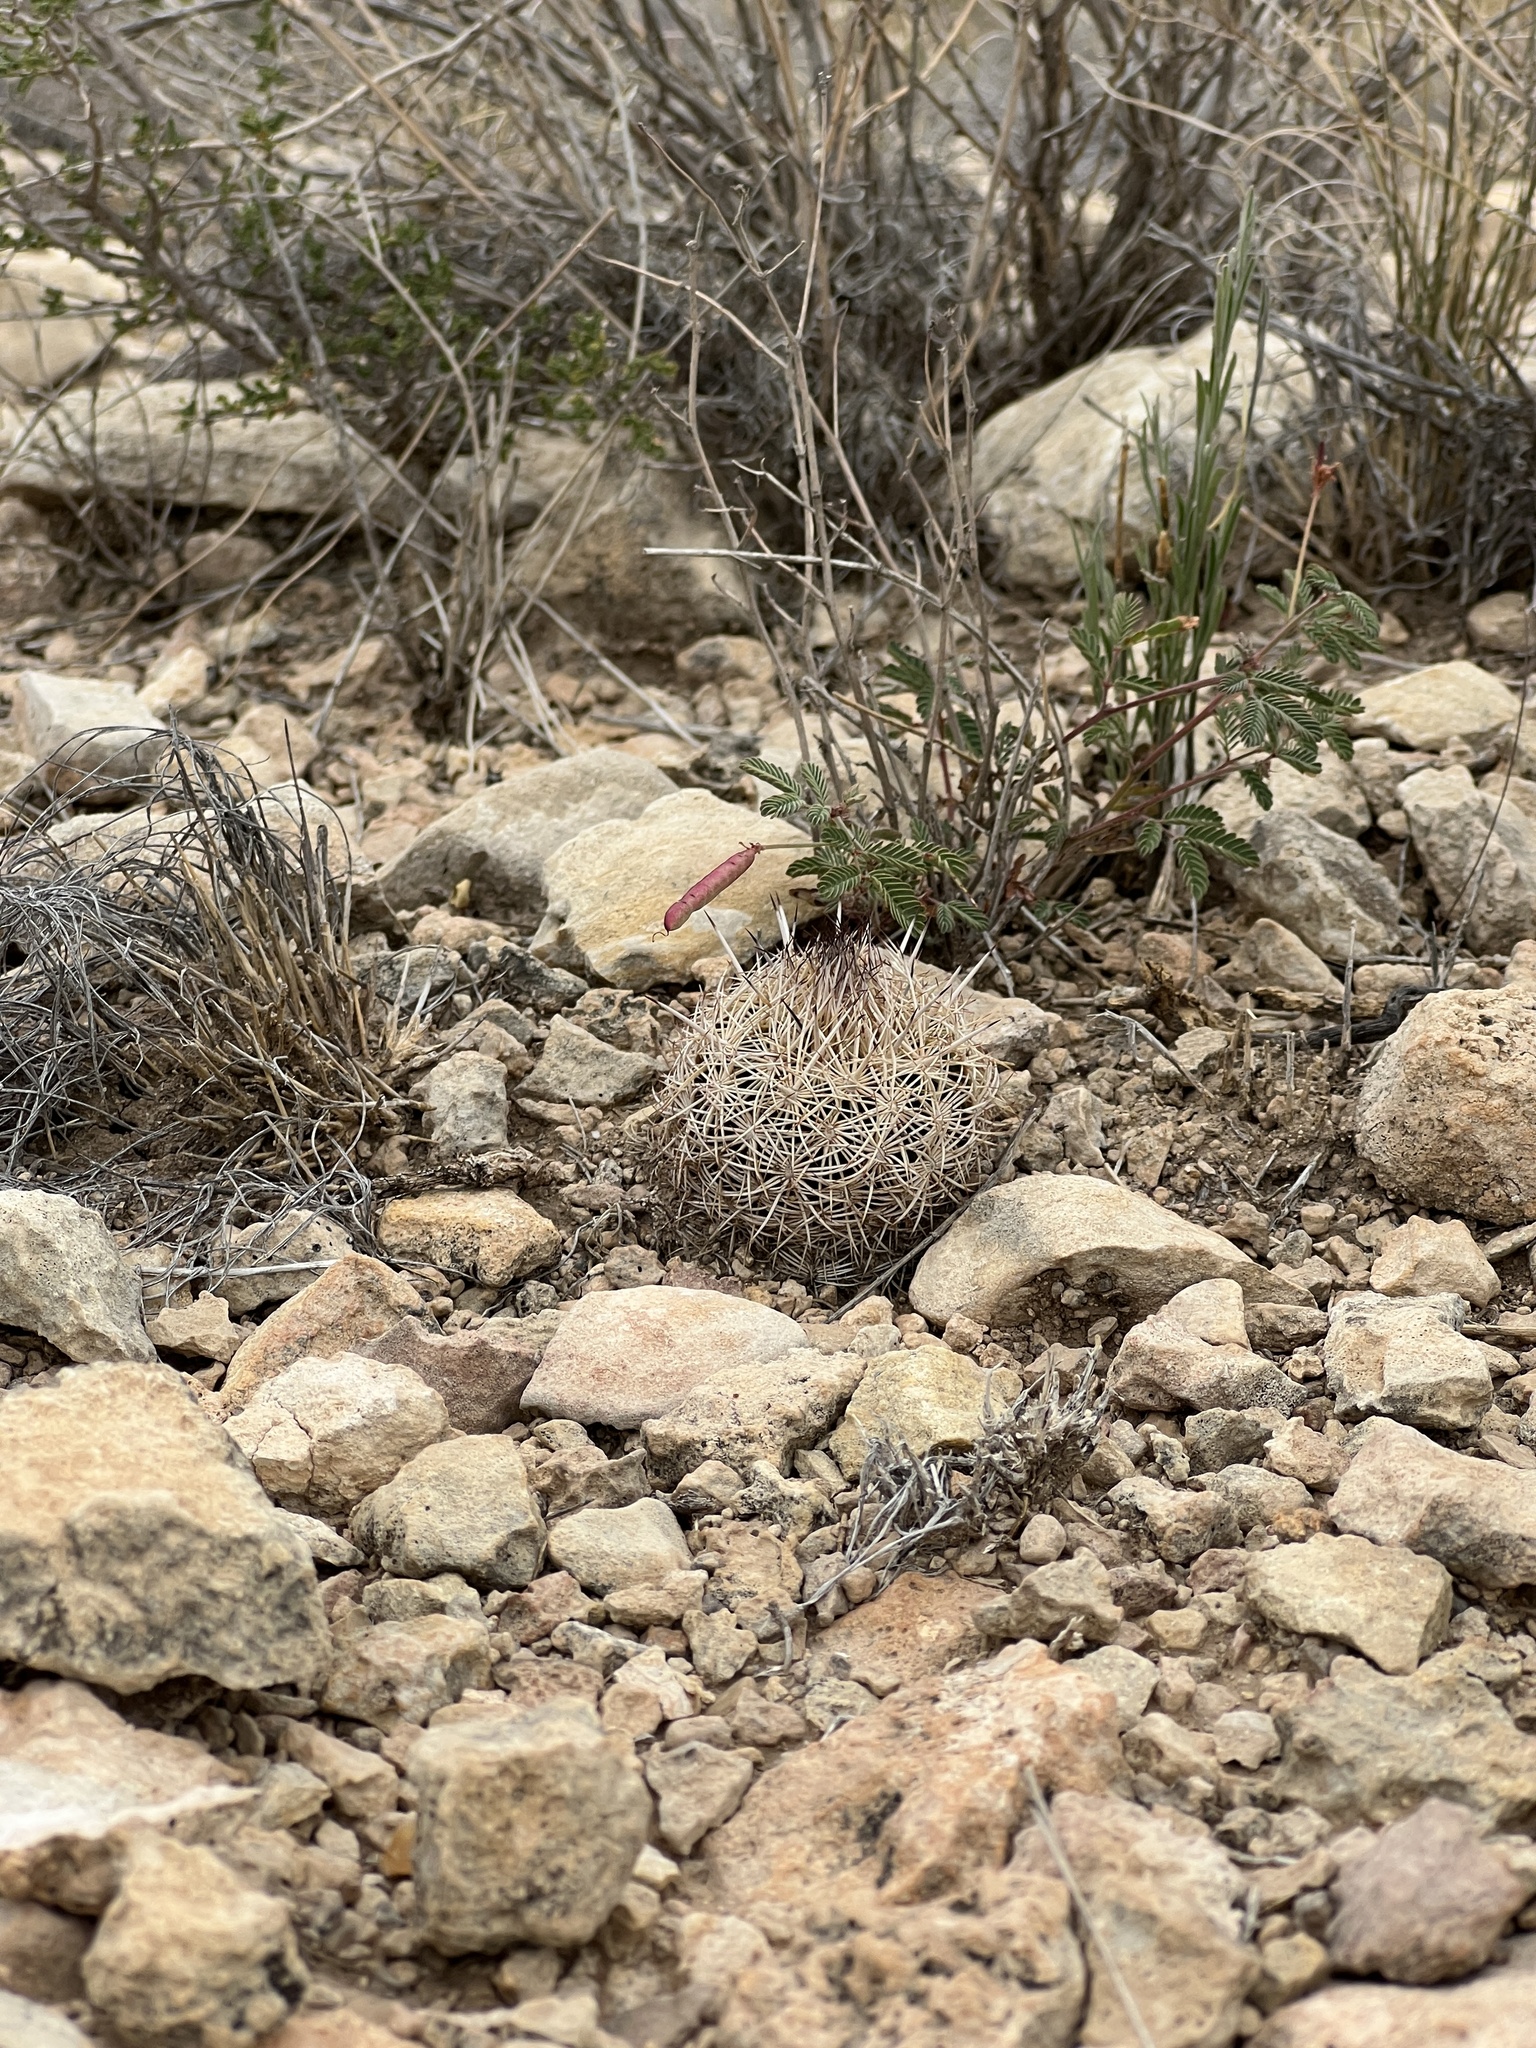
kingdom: Plantae
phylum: Tracheophyta
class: Magnoliopsida
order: Caryophyllales
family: Cactaceae
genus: Coryphantha
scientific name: Coryphantha echinus
